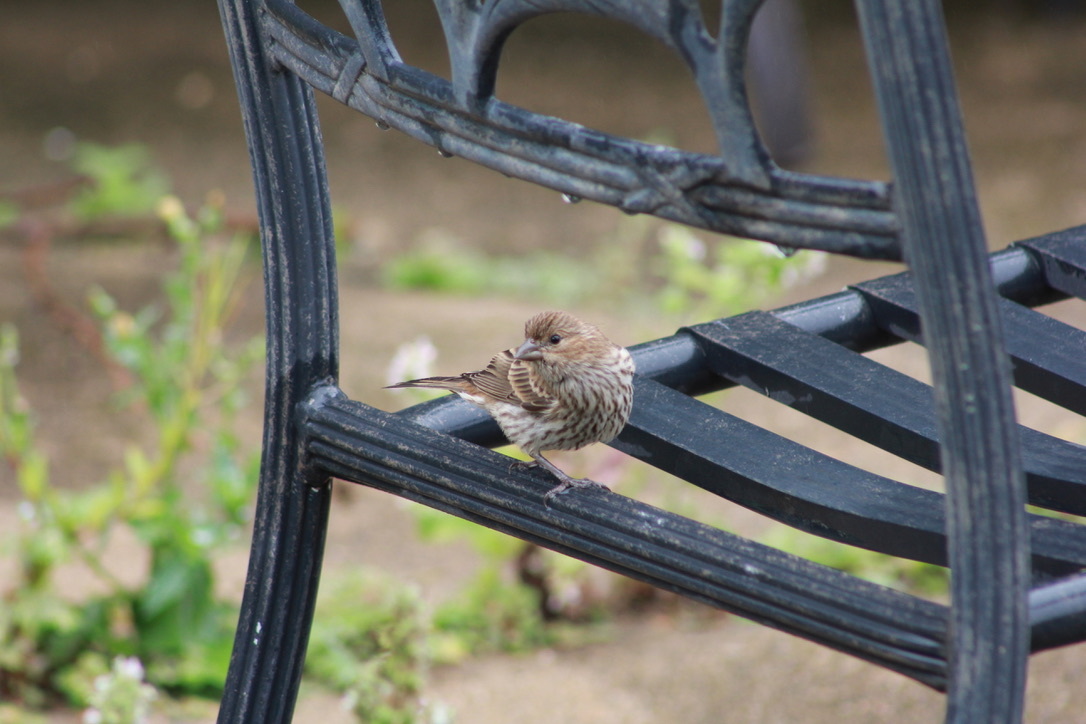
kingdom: Animalia
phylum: Chordata
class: Aves
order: Passeriformes
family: Fringillidae
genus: Haemorhous
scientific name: Haemorhous mexicanus
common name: House finch
